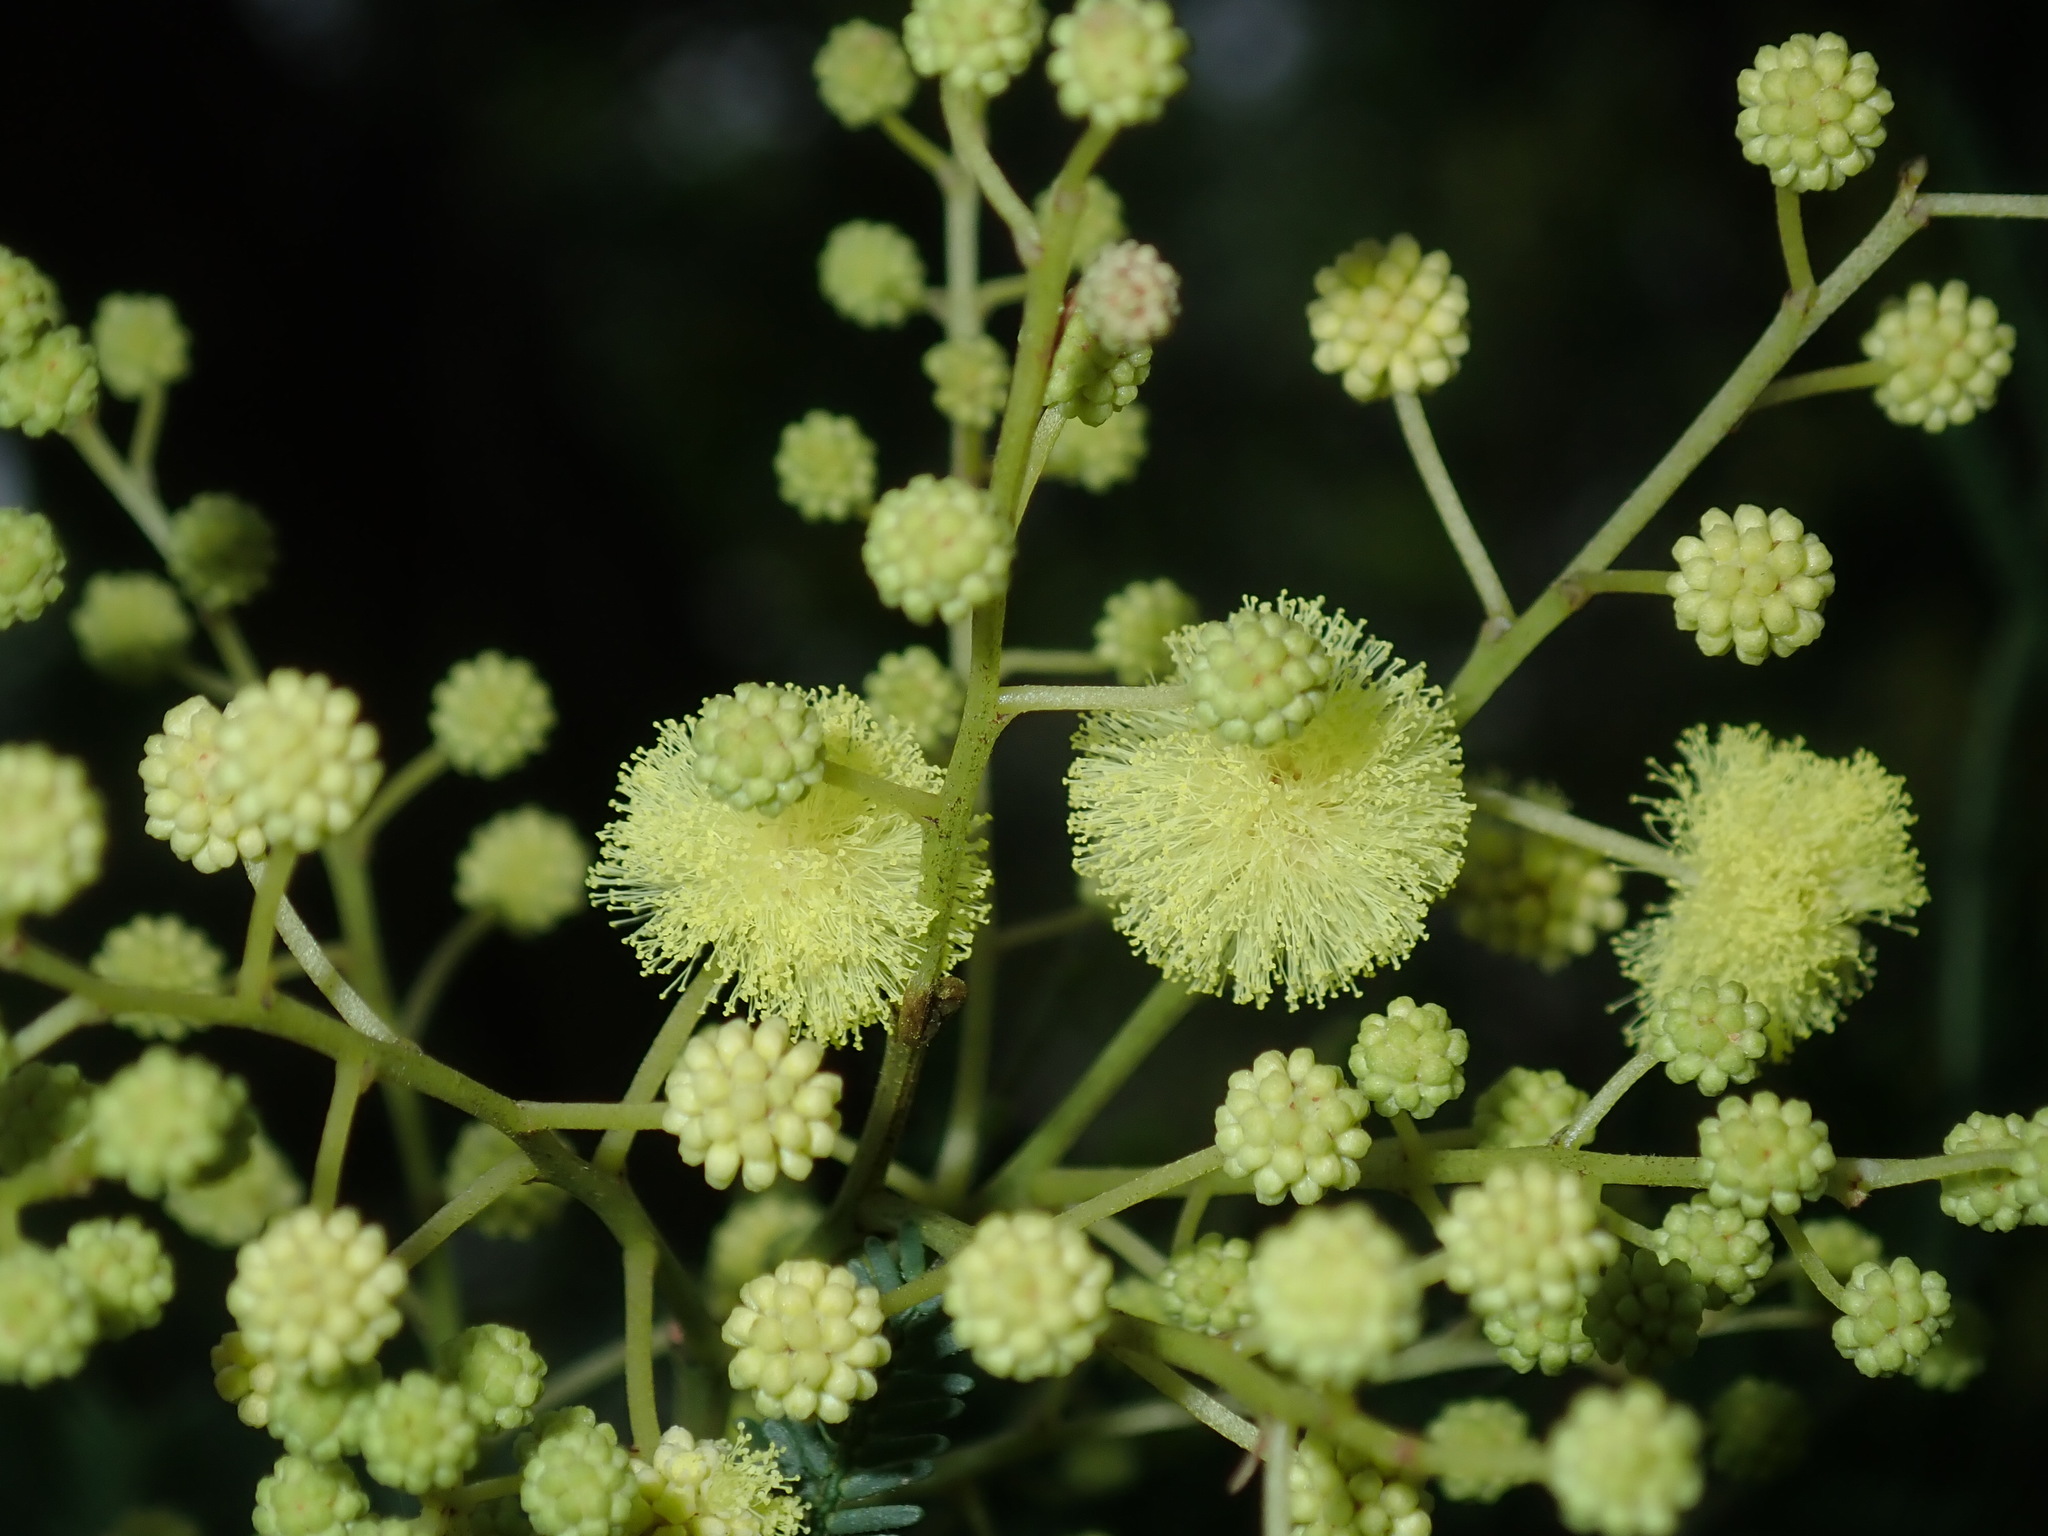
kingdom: Plantae
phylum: Tracheophyta
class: Magnoliopsida
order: Fabales
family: Fabaceae
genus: Acacia
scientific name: Acacia parramattensis
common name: Sydney green wattle
